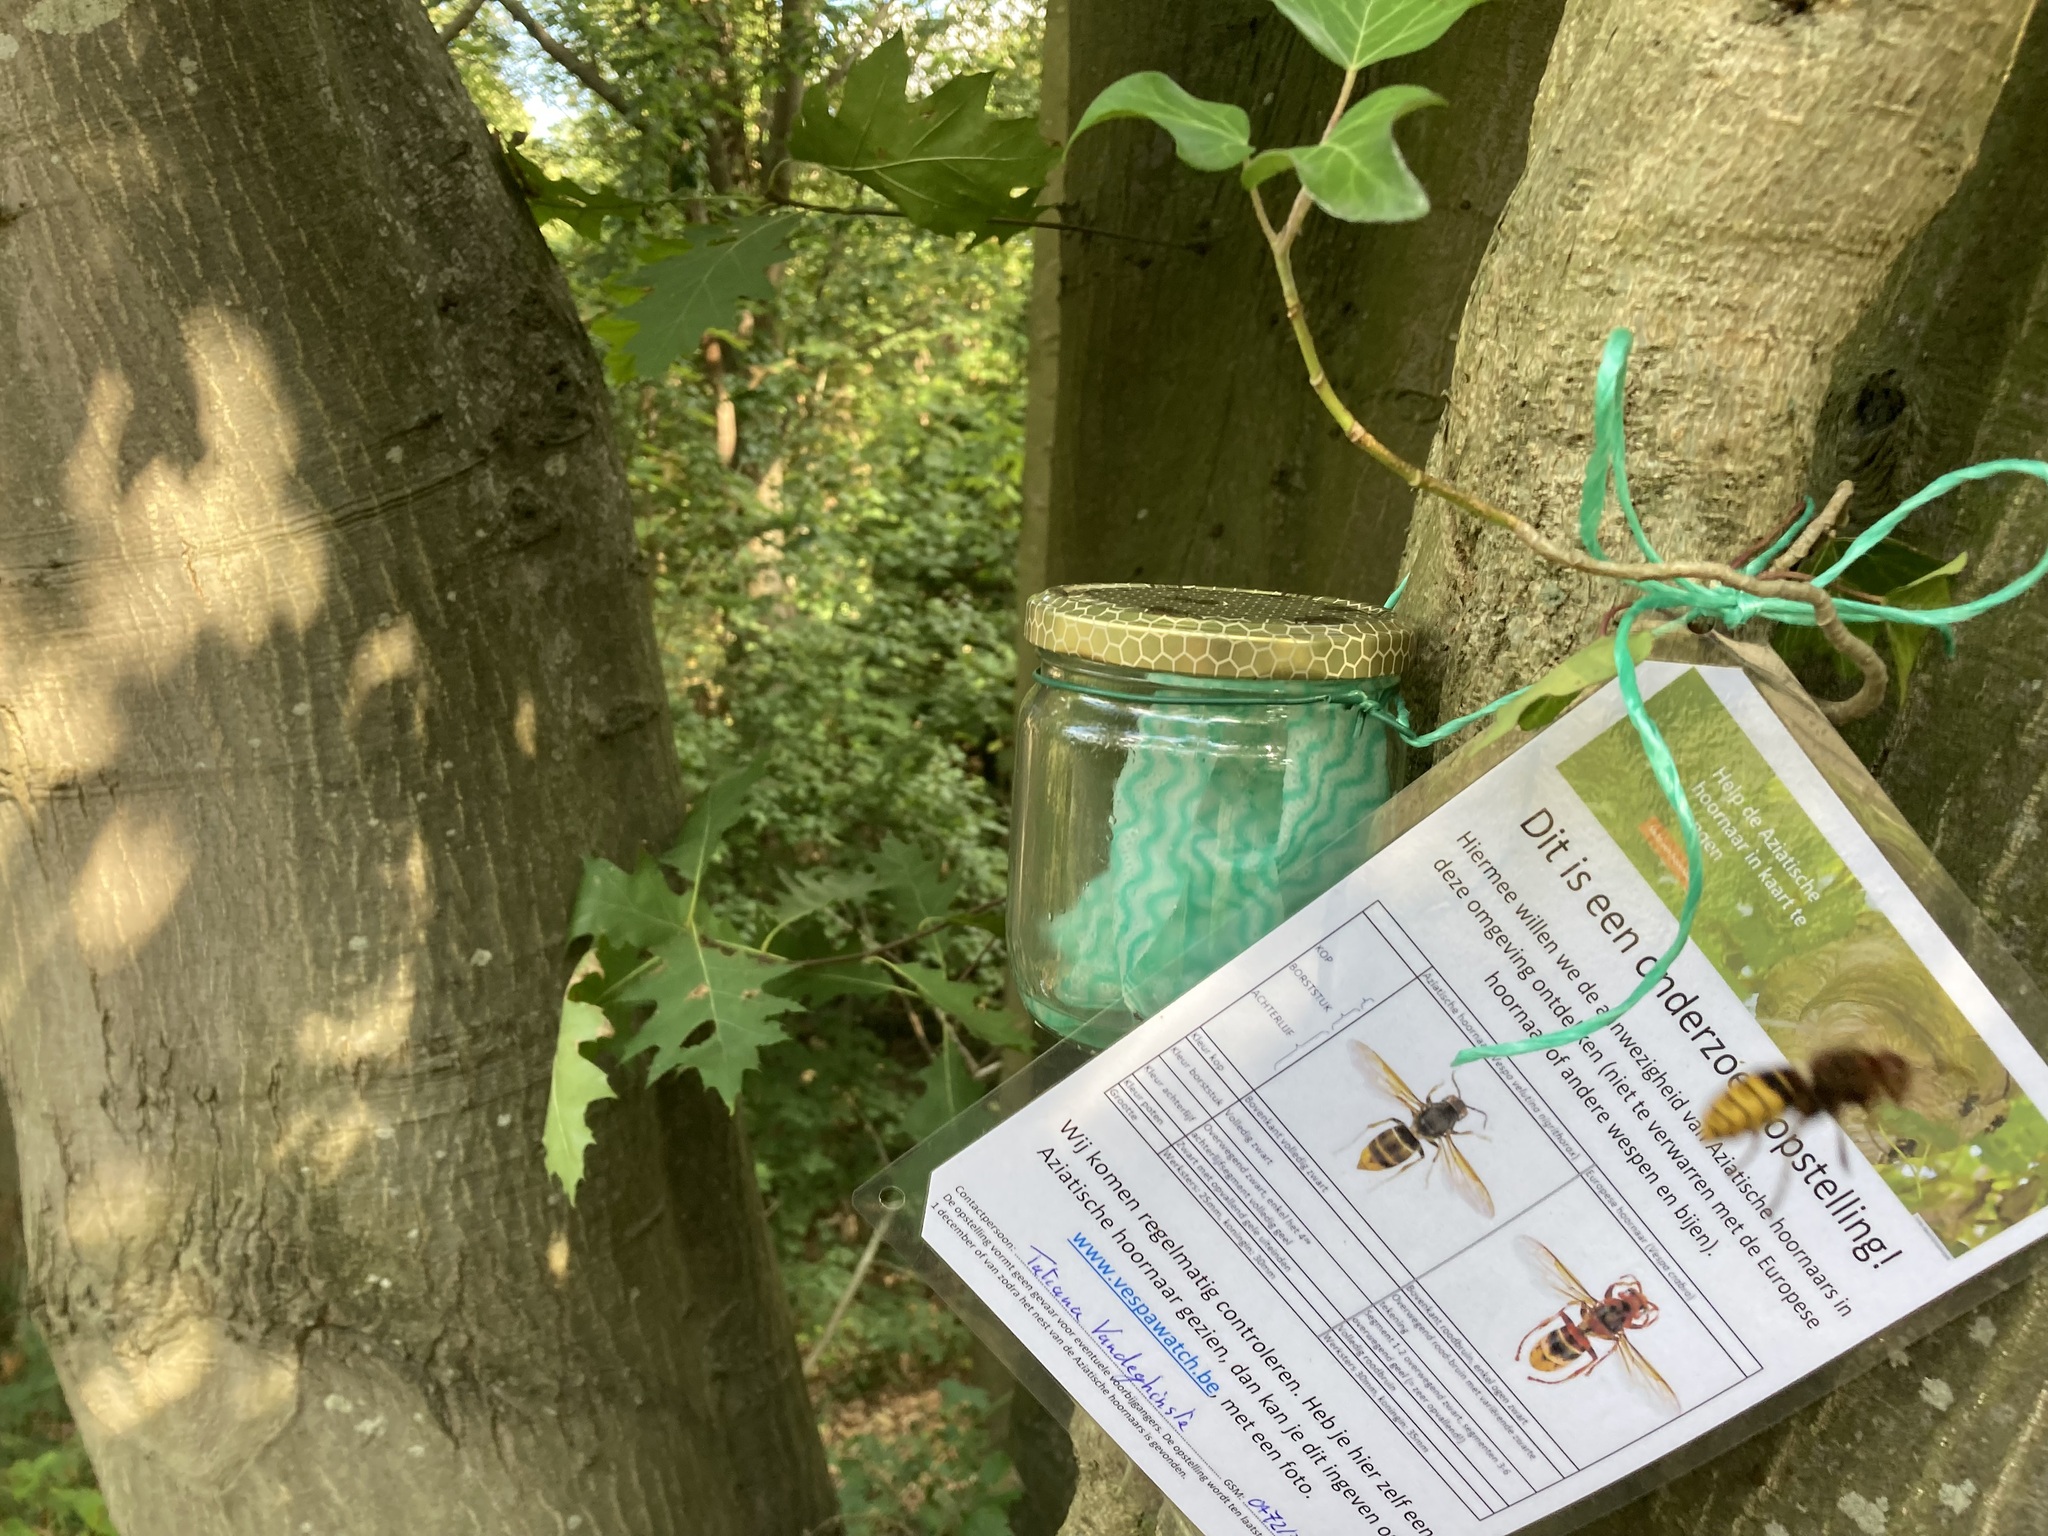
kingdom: Animalia
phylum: Arthropoda
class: Insecta
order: Hymenoptera
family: Vespidae
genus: Vespa
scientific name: Vespa crabro
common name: Hornet
